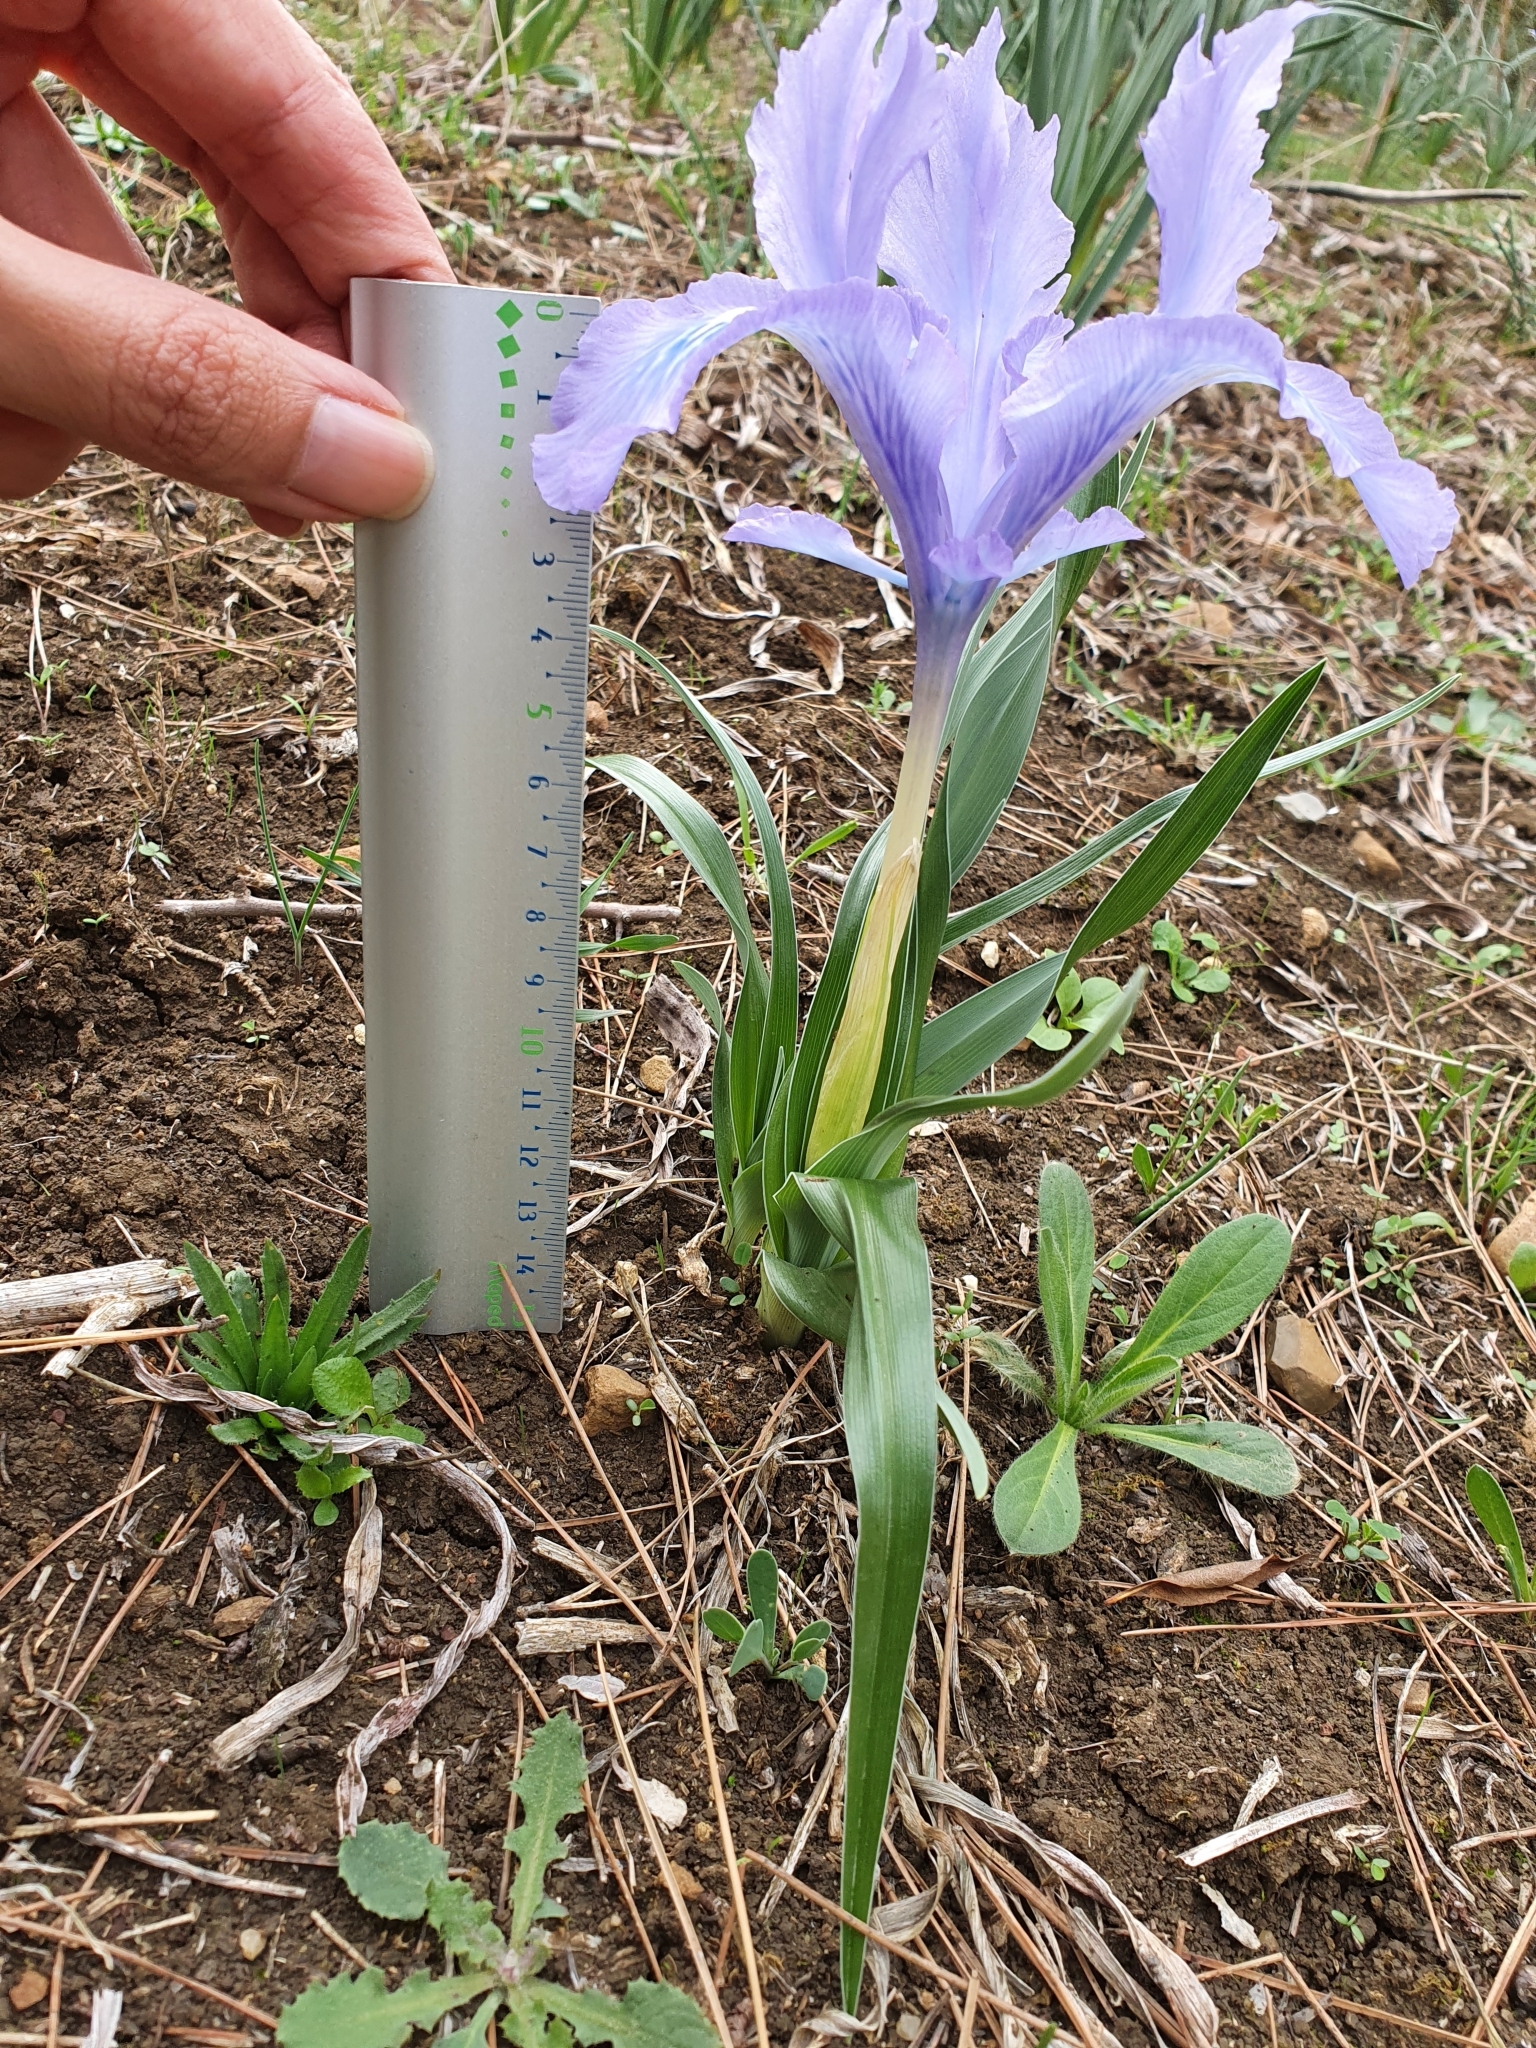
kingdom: Plantae
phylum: Tracheophyta
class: Liliopsida
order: Asparagales
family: Iridaceae
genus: Iris
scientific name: Iris planifolia
